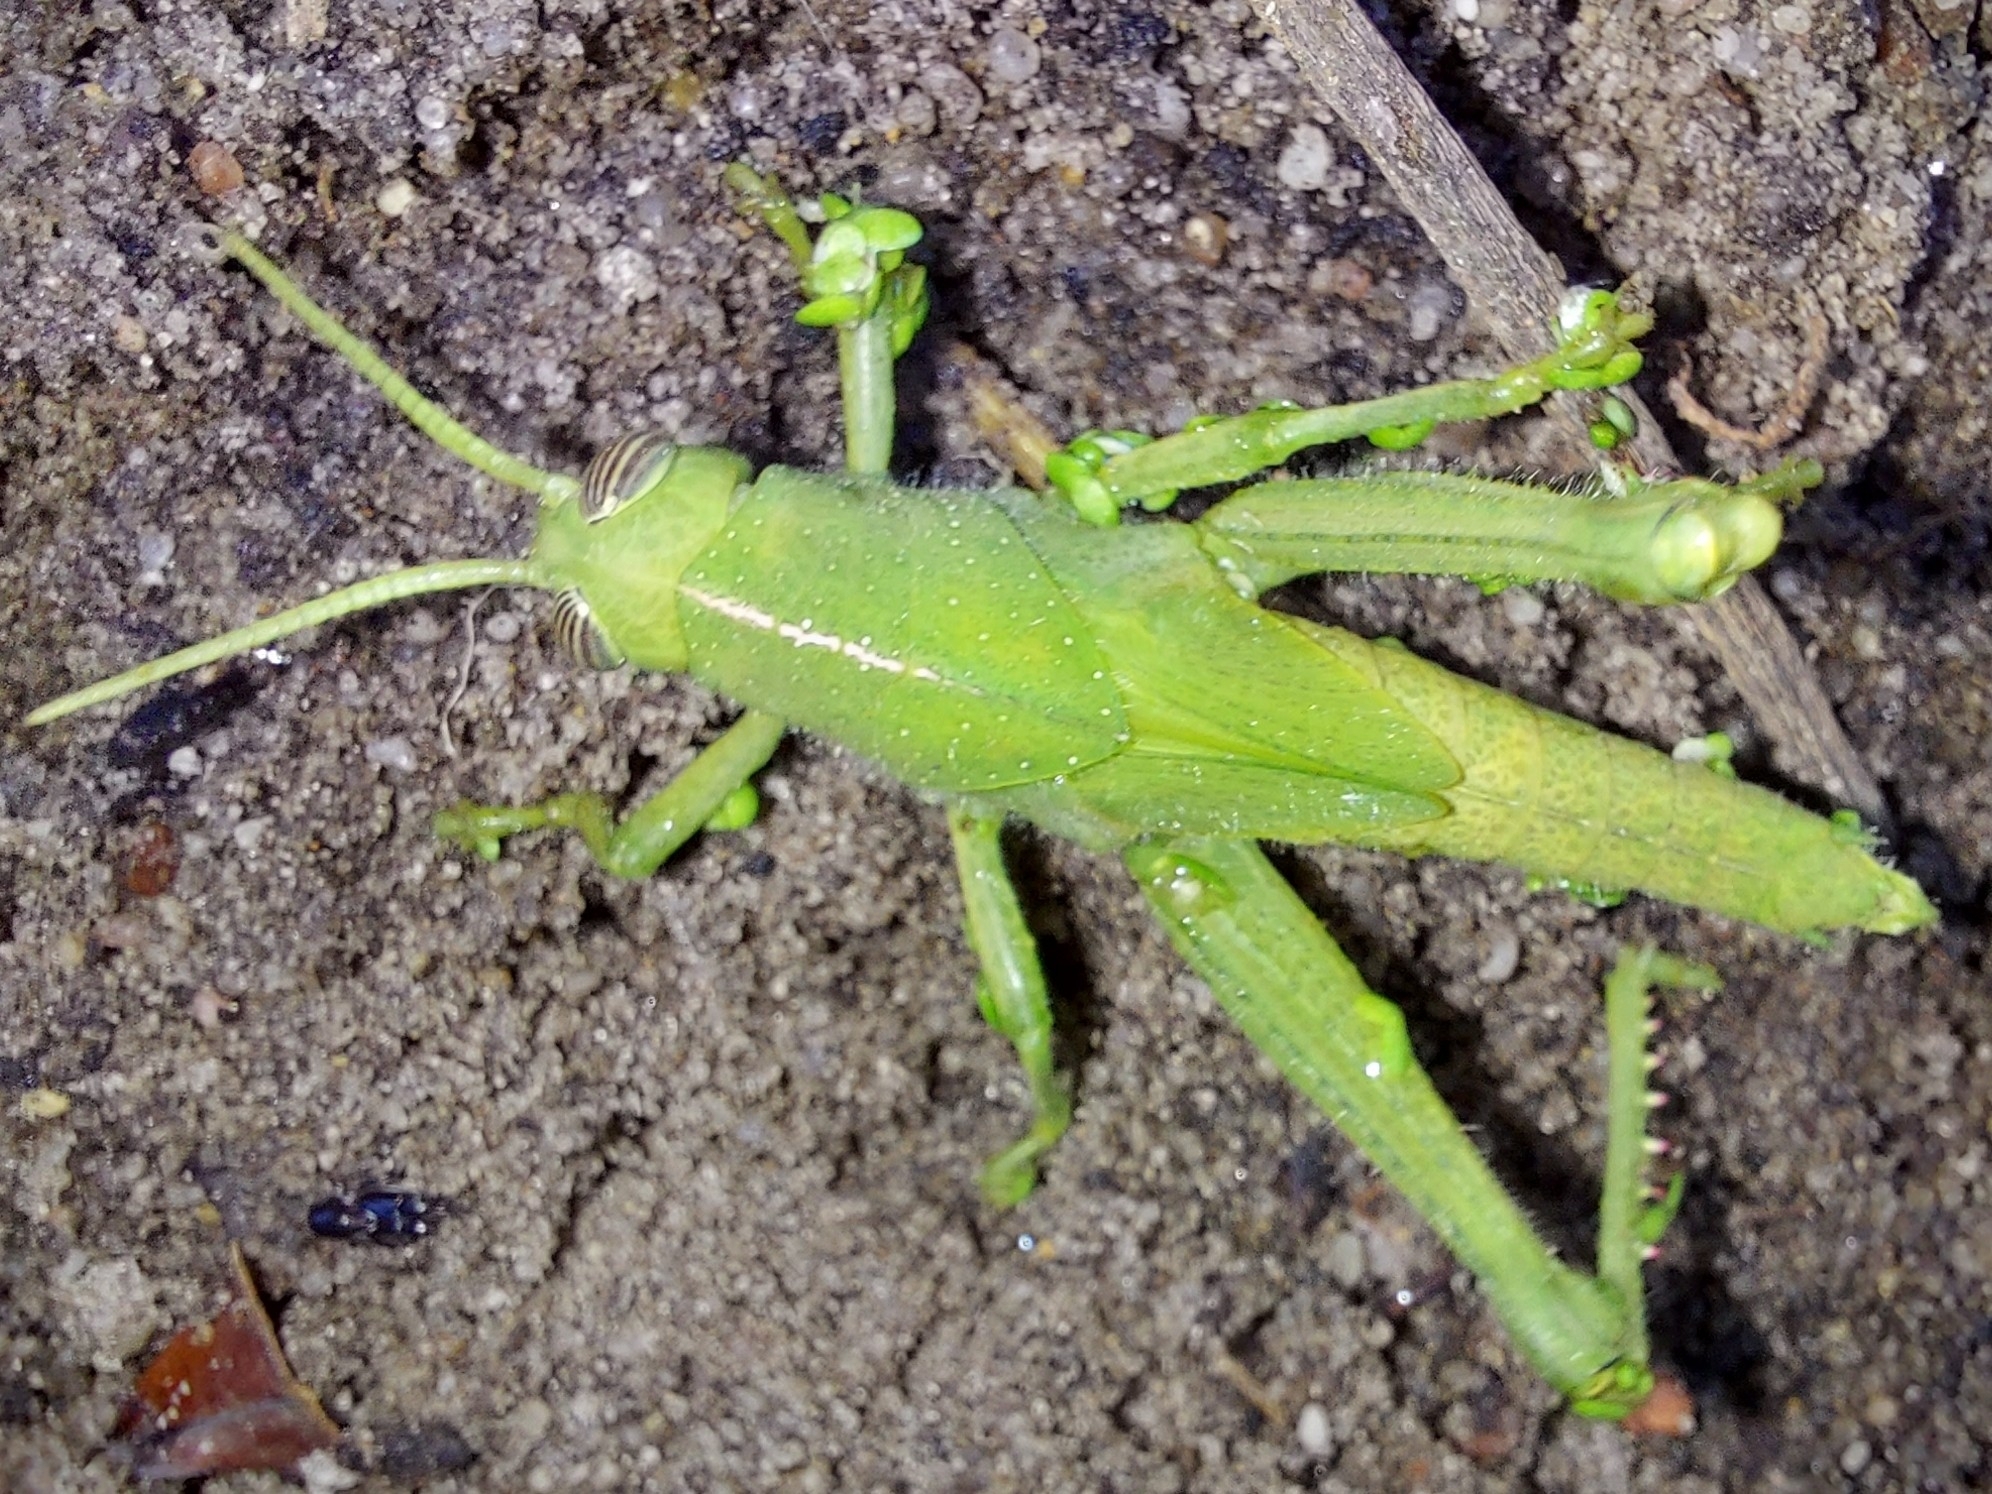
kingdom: Animalia
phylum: Arthropoda
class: Insecta
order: Orthoptera
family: Acrididae
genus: Acanthacris
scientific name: Acanthacris ruficornis
